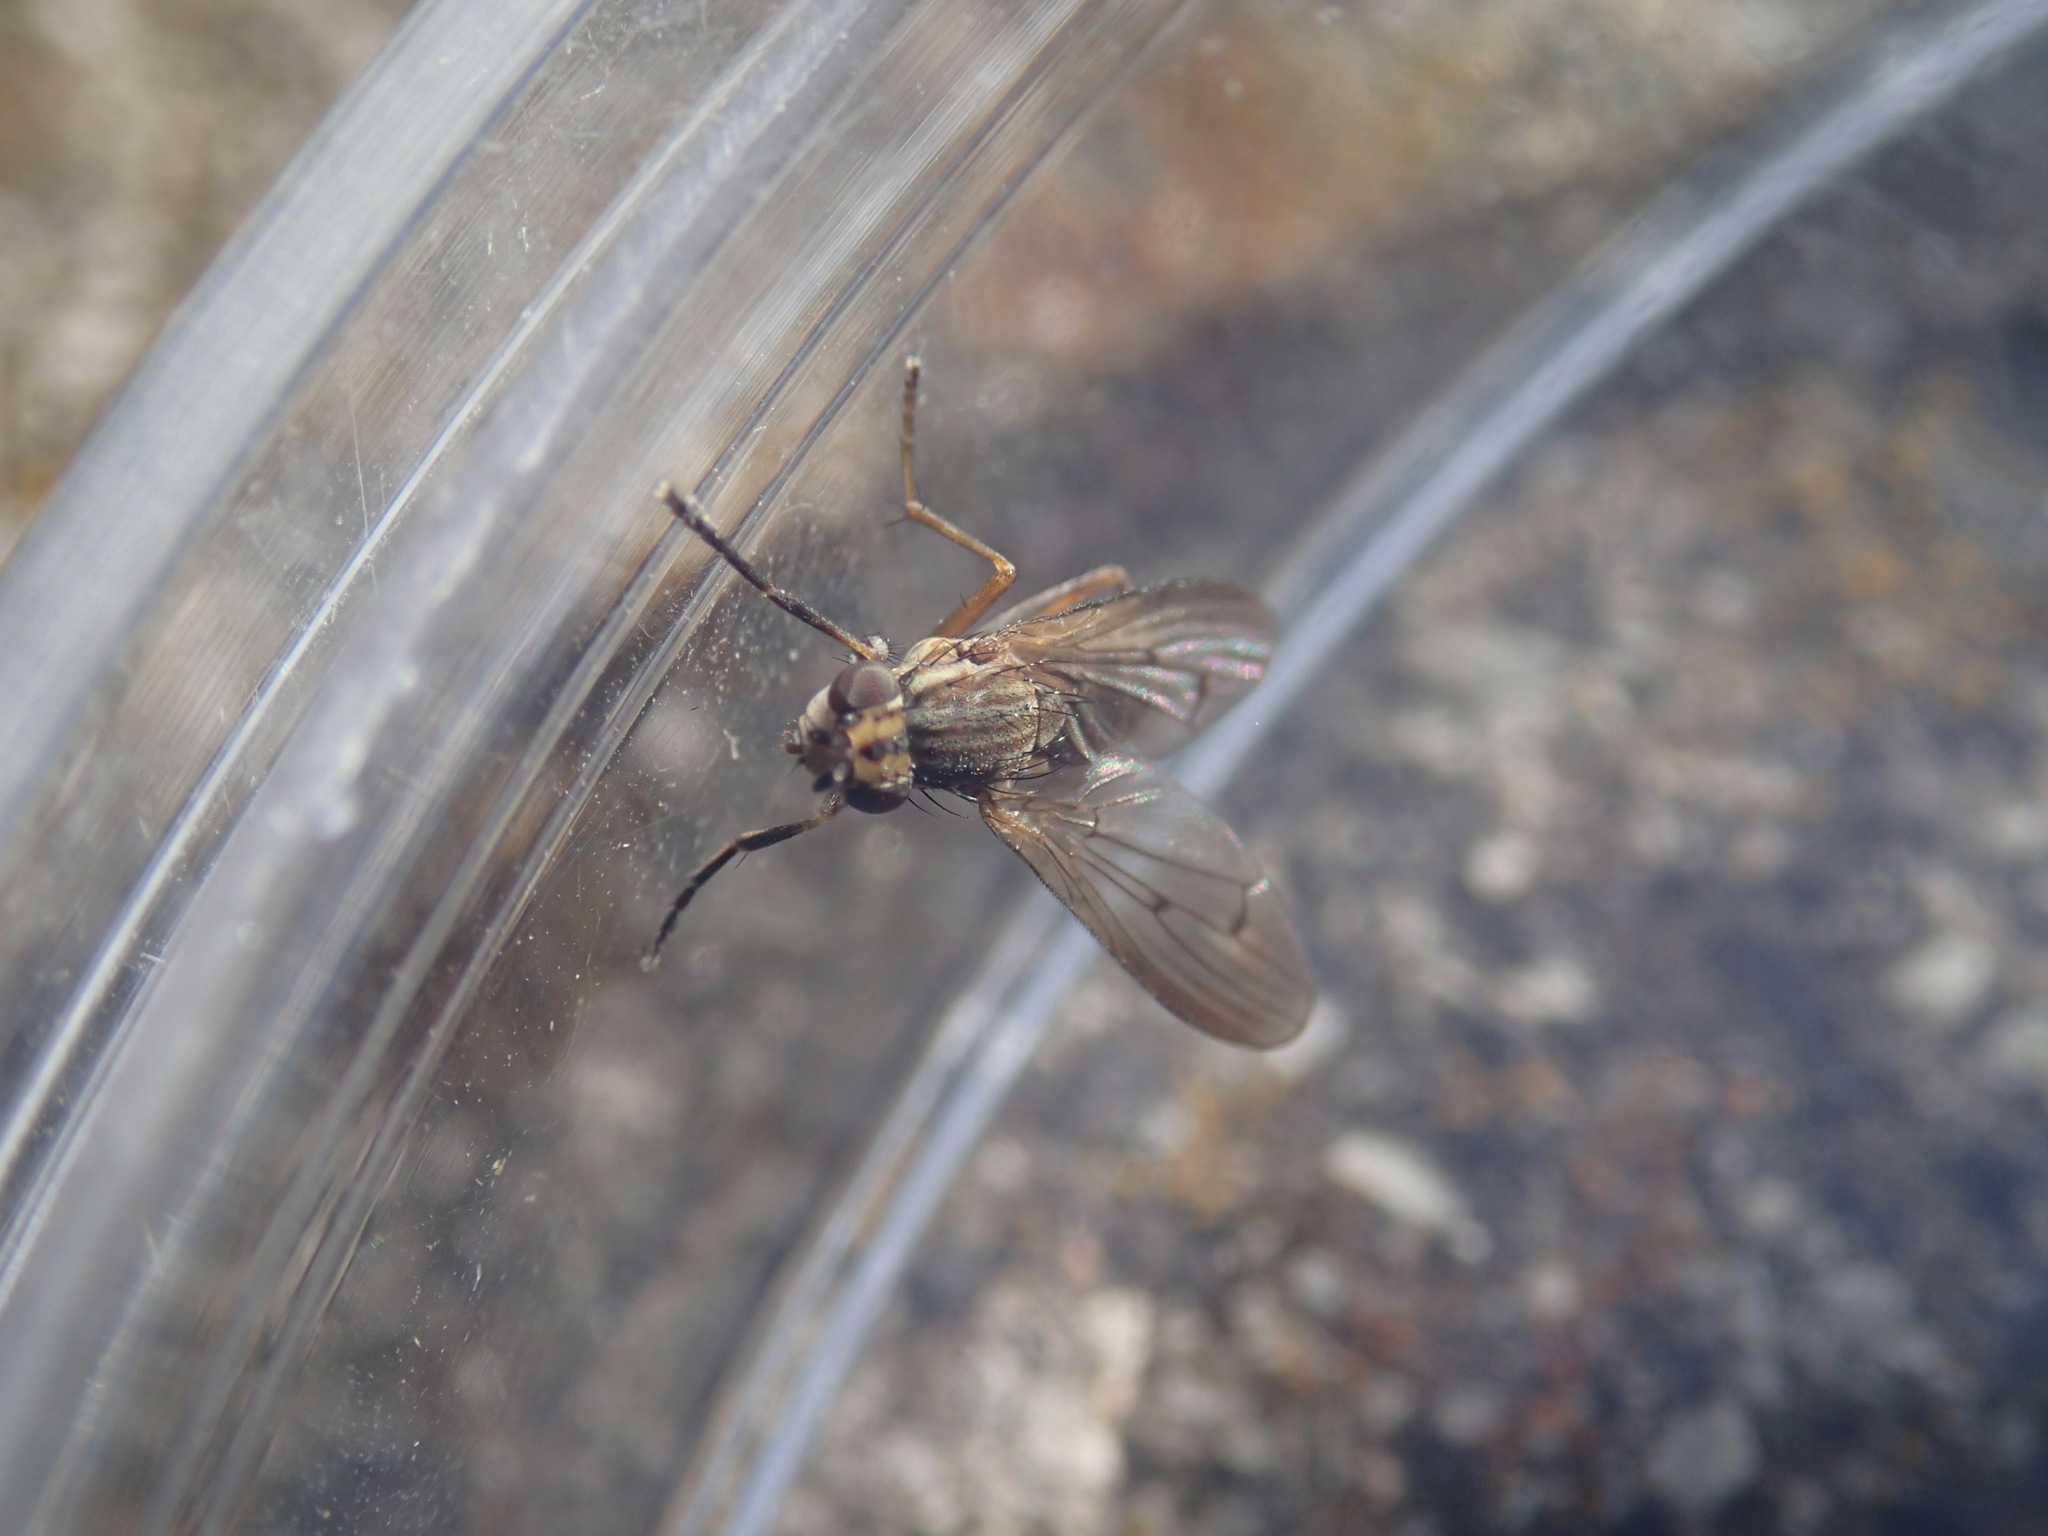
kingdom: Animalia
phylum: Arthropoda
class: Insecta
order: Diptera
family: Sciomyzidae
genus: Pherbellia
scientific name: Pherbellia cinerella
